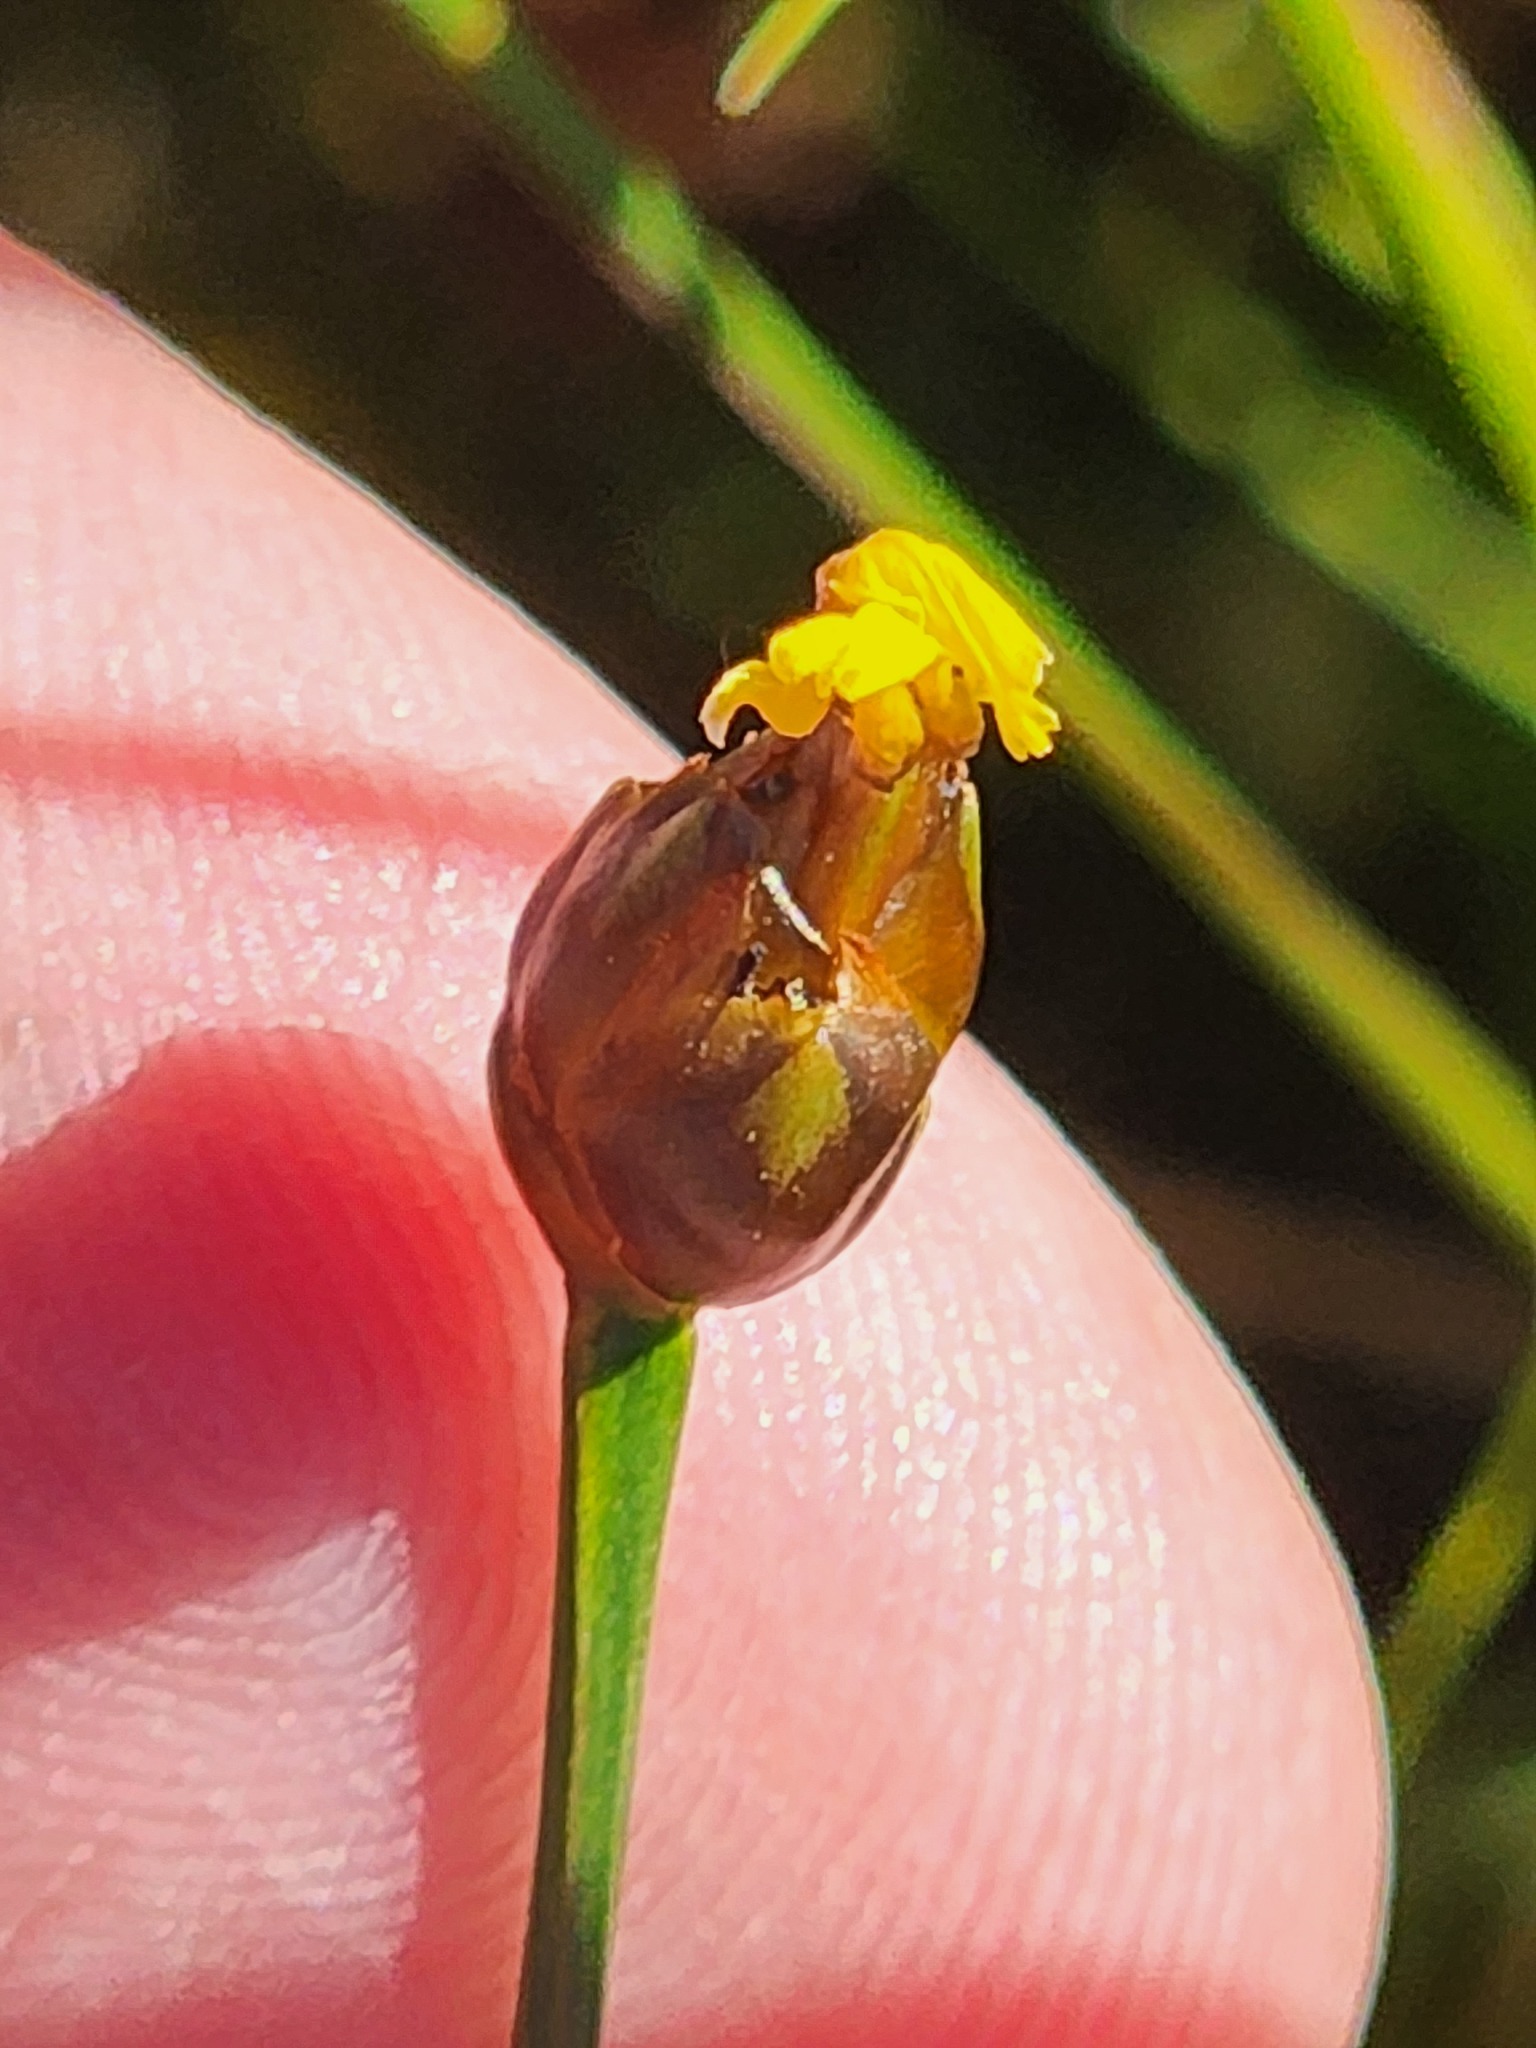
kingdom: Plantae
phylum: Tracheophyta
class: Liliopsida
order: Poales
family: Xyridaceae
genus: Xyris
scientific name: Xyris montana
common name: Northern yellow-eyed-grass
